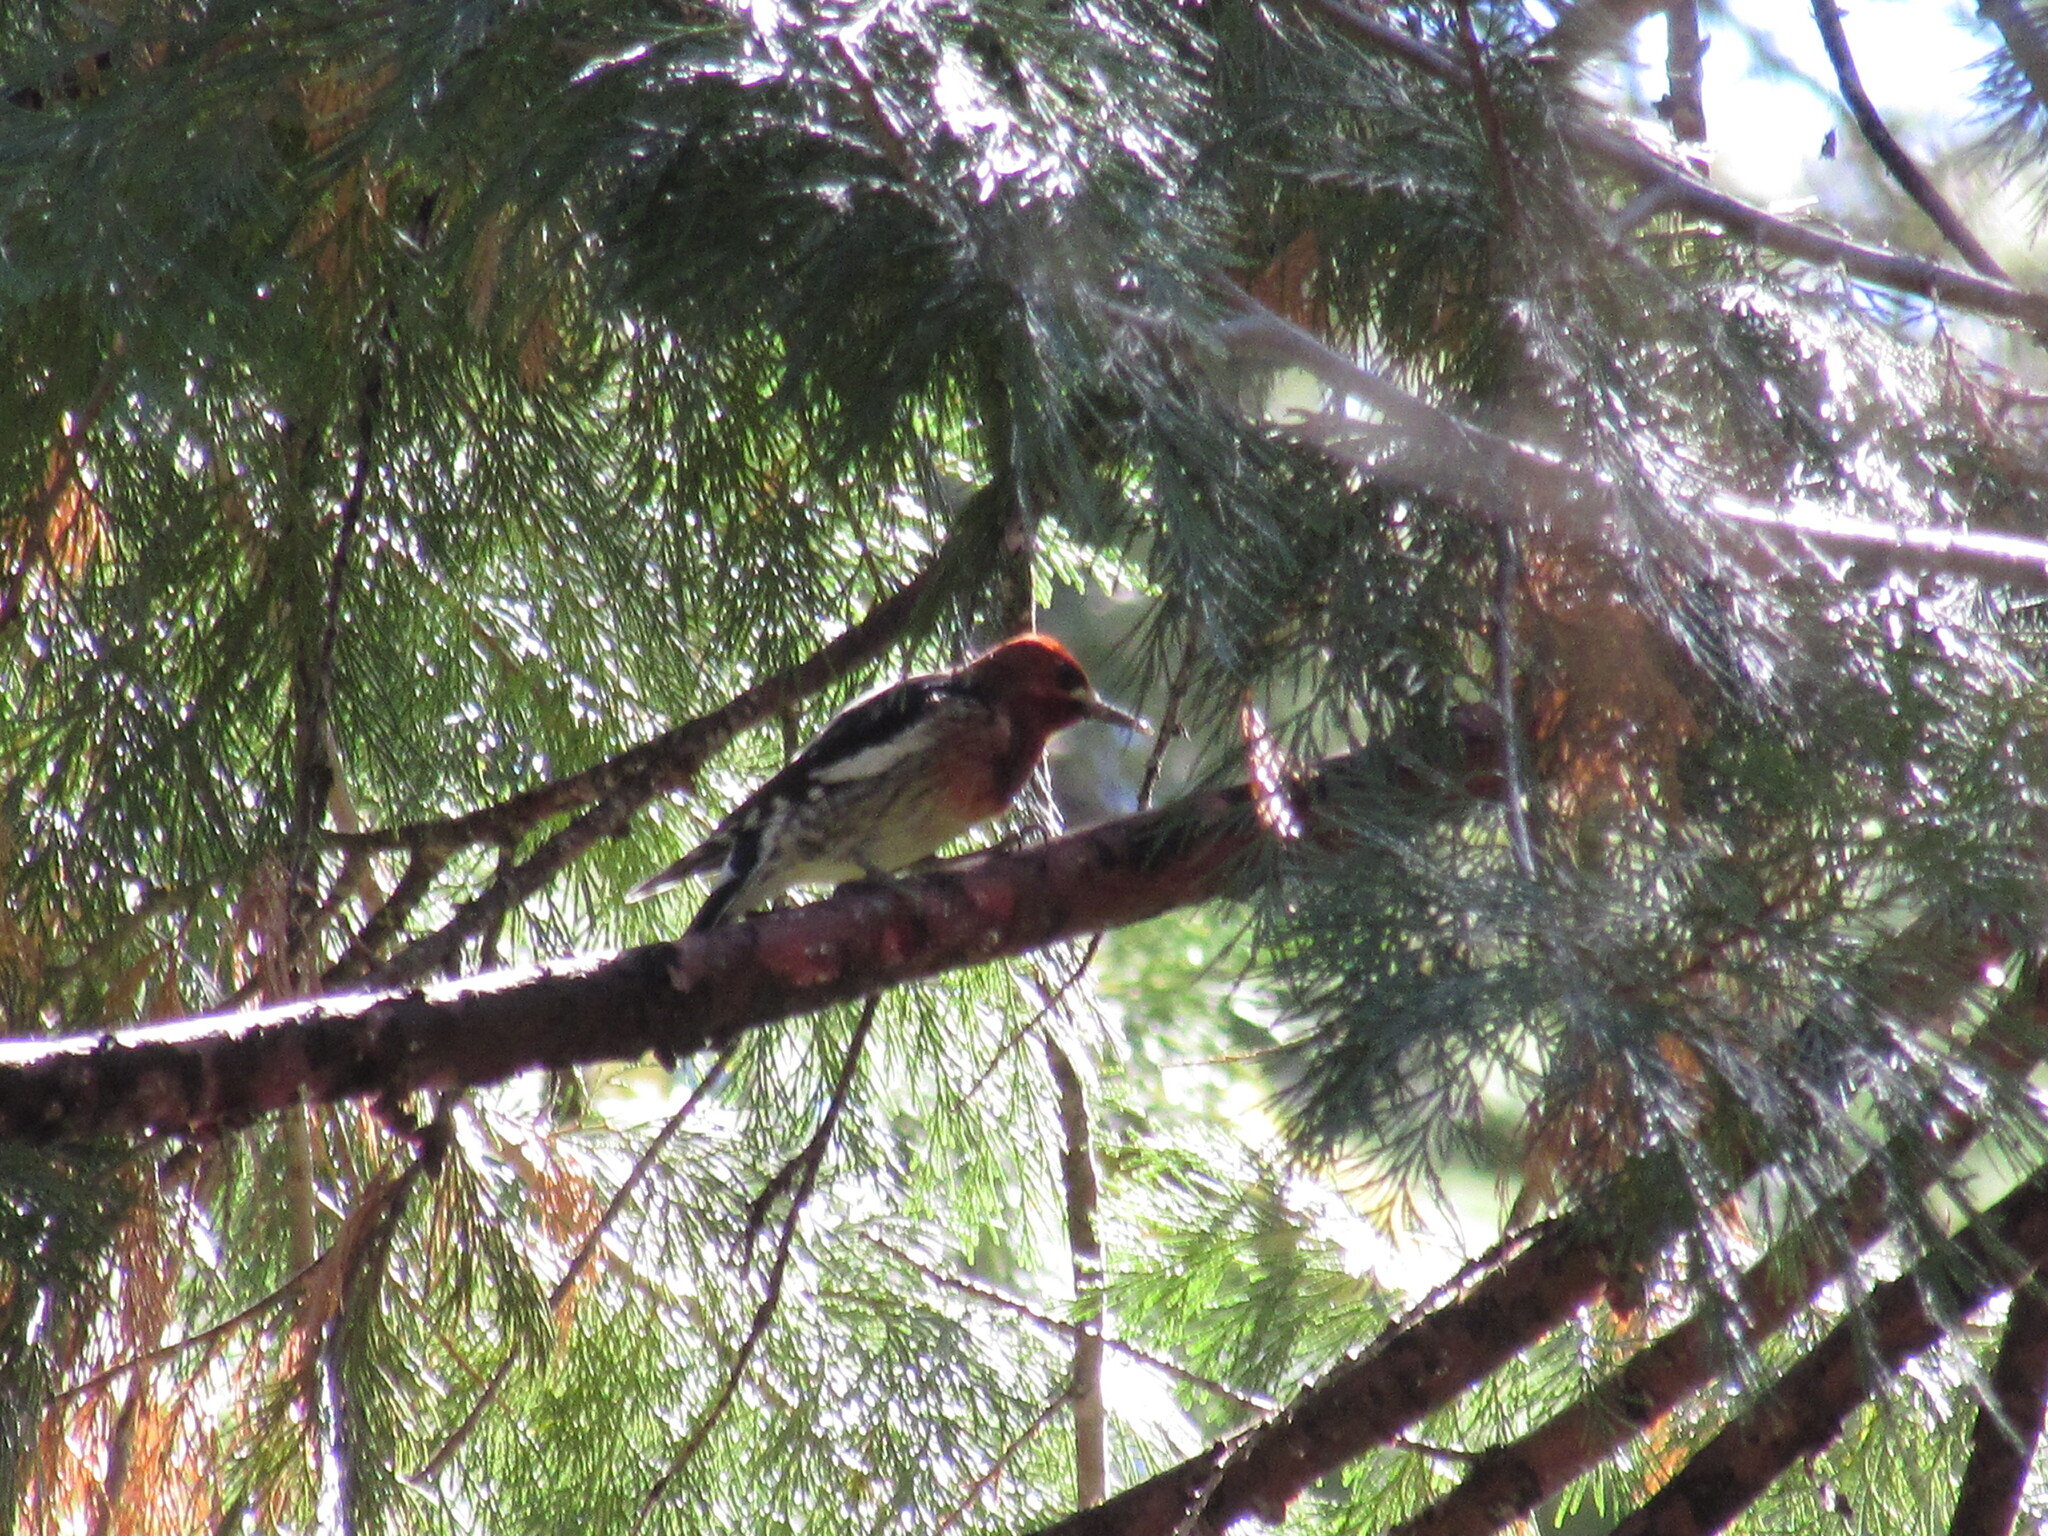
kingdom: Animalia
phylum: Chordata
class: Aves
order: Piciformes
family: Picidae
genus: Sphyrapicus
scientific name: Sphyrapicus ruber
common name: Red-breasted sapsucker
